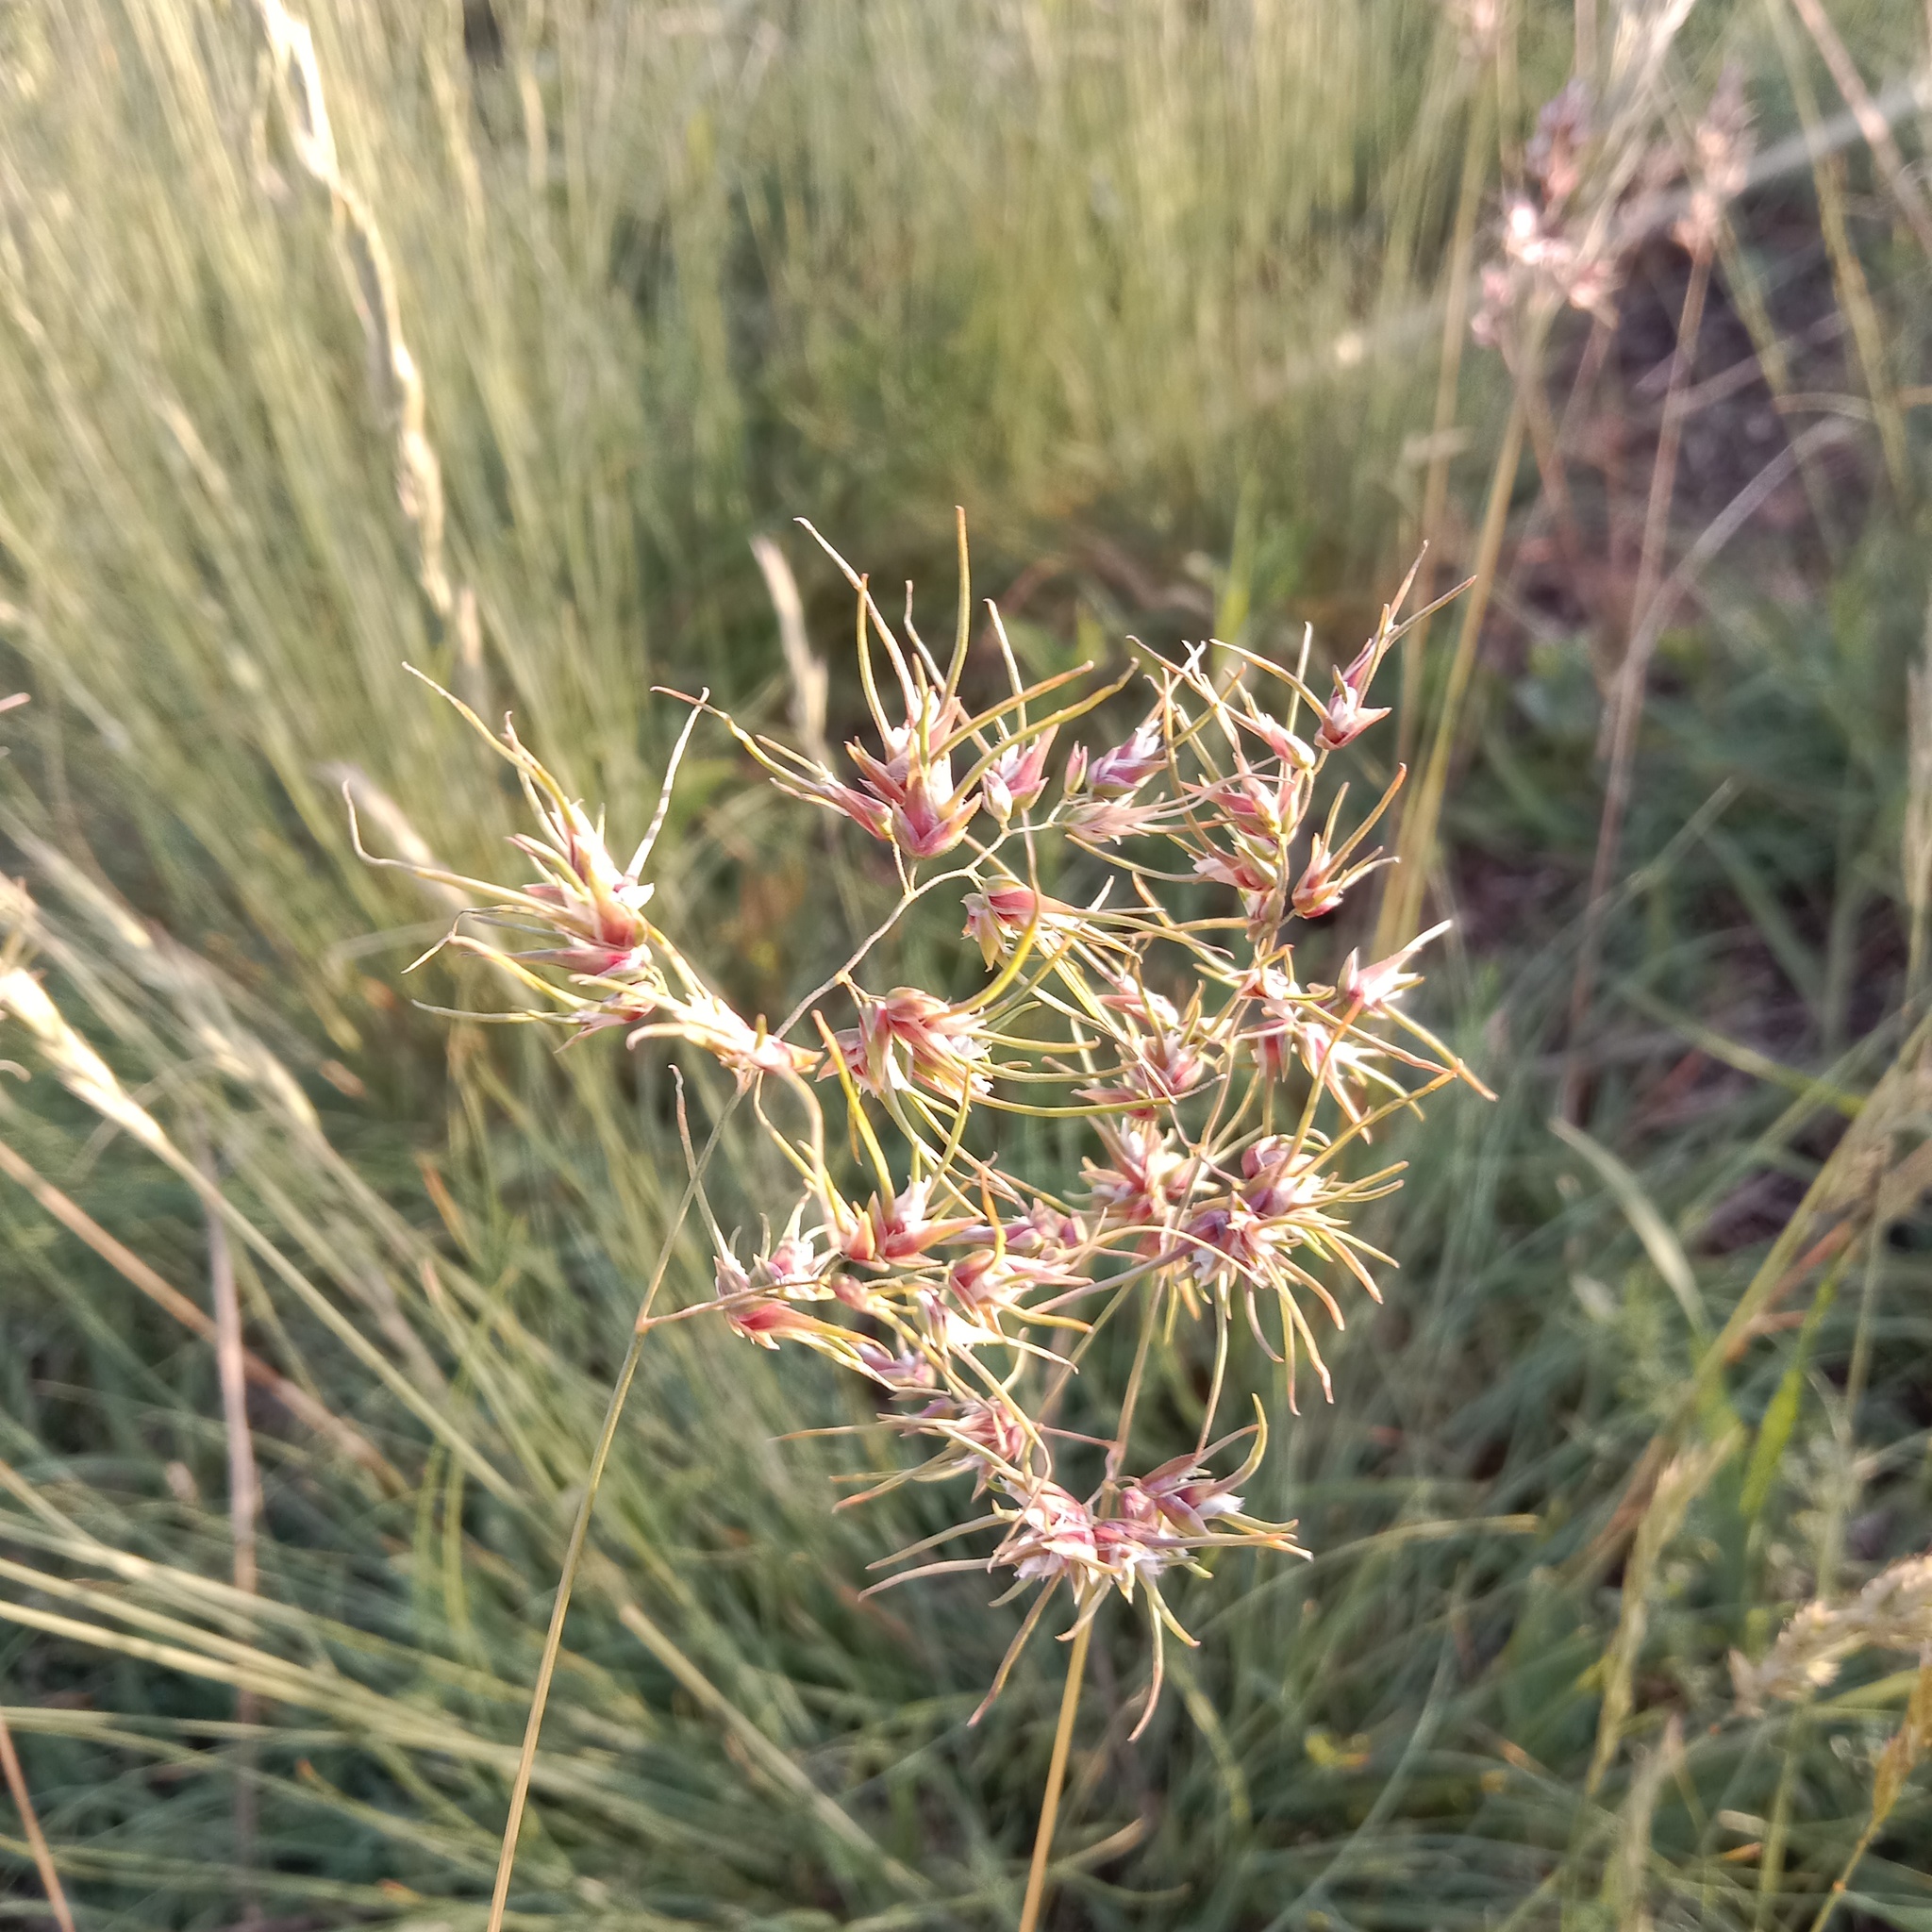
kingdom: Plantae
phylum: Tracheophyta
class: Liliopsida
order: Poales
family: Poaceae
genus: Poa
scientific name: Poa bulbosa
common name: Bulbous bluegrass
